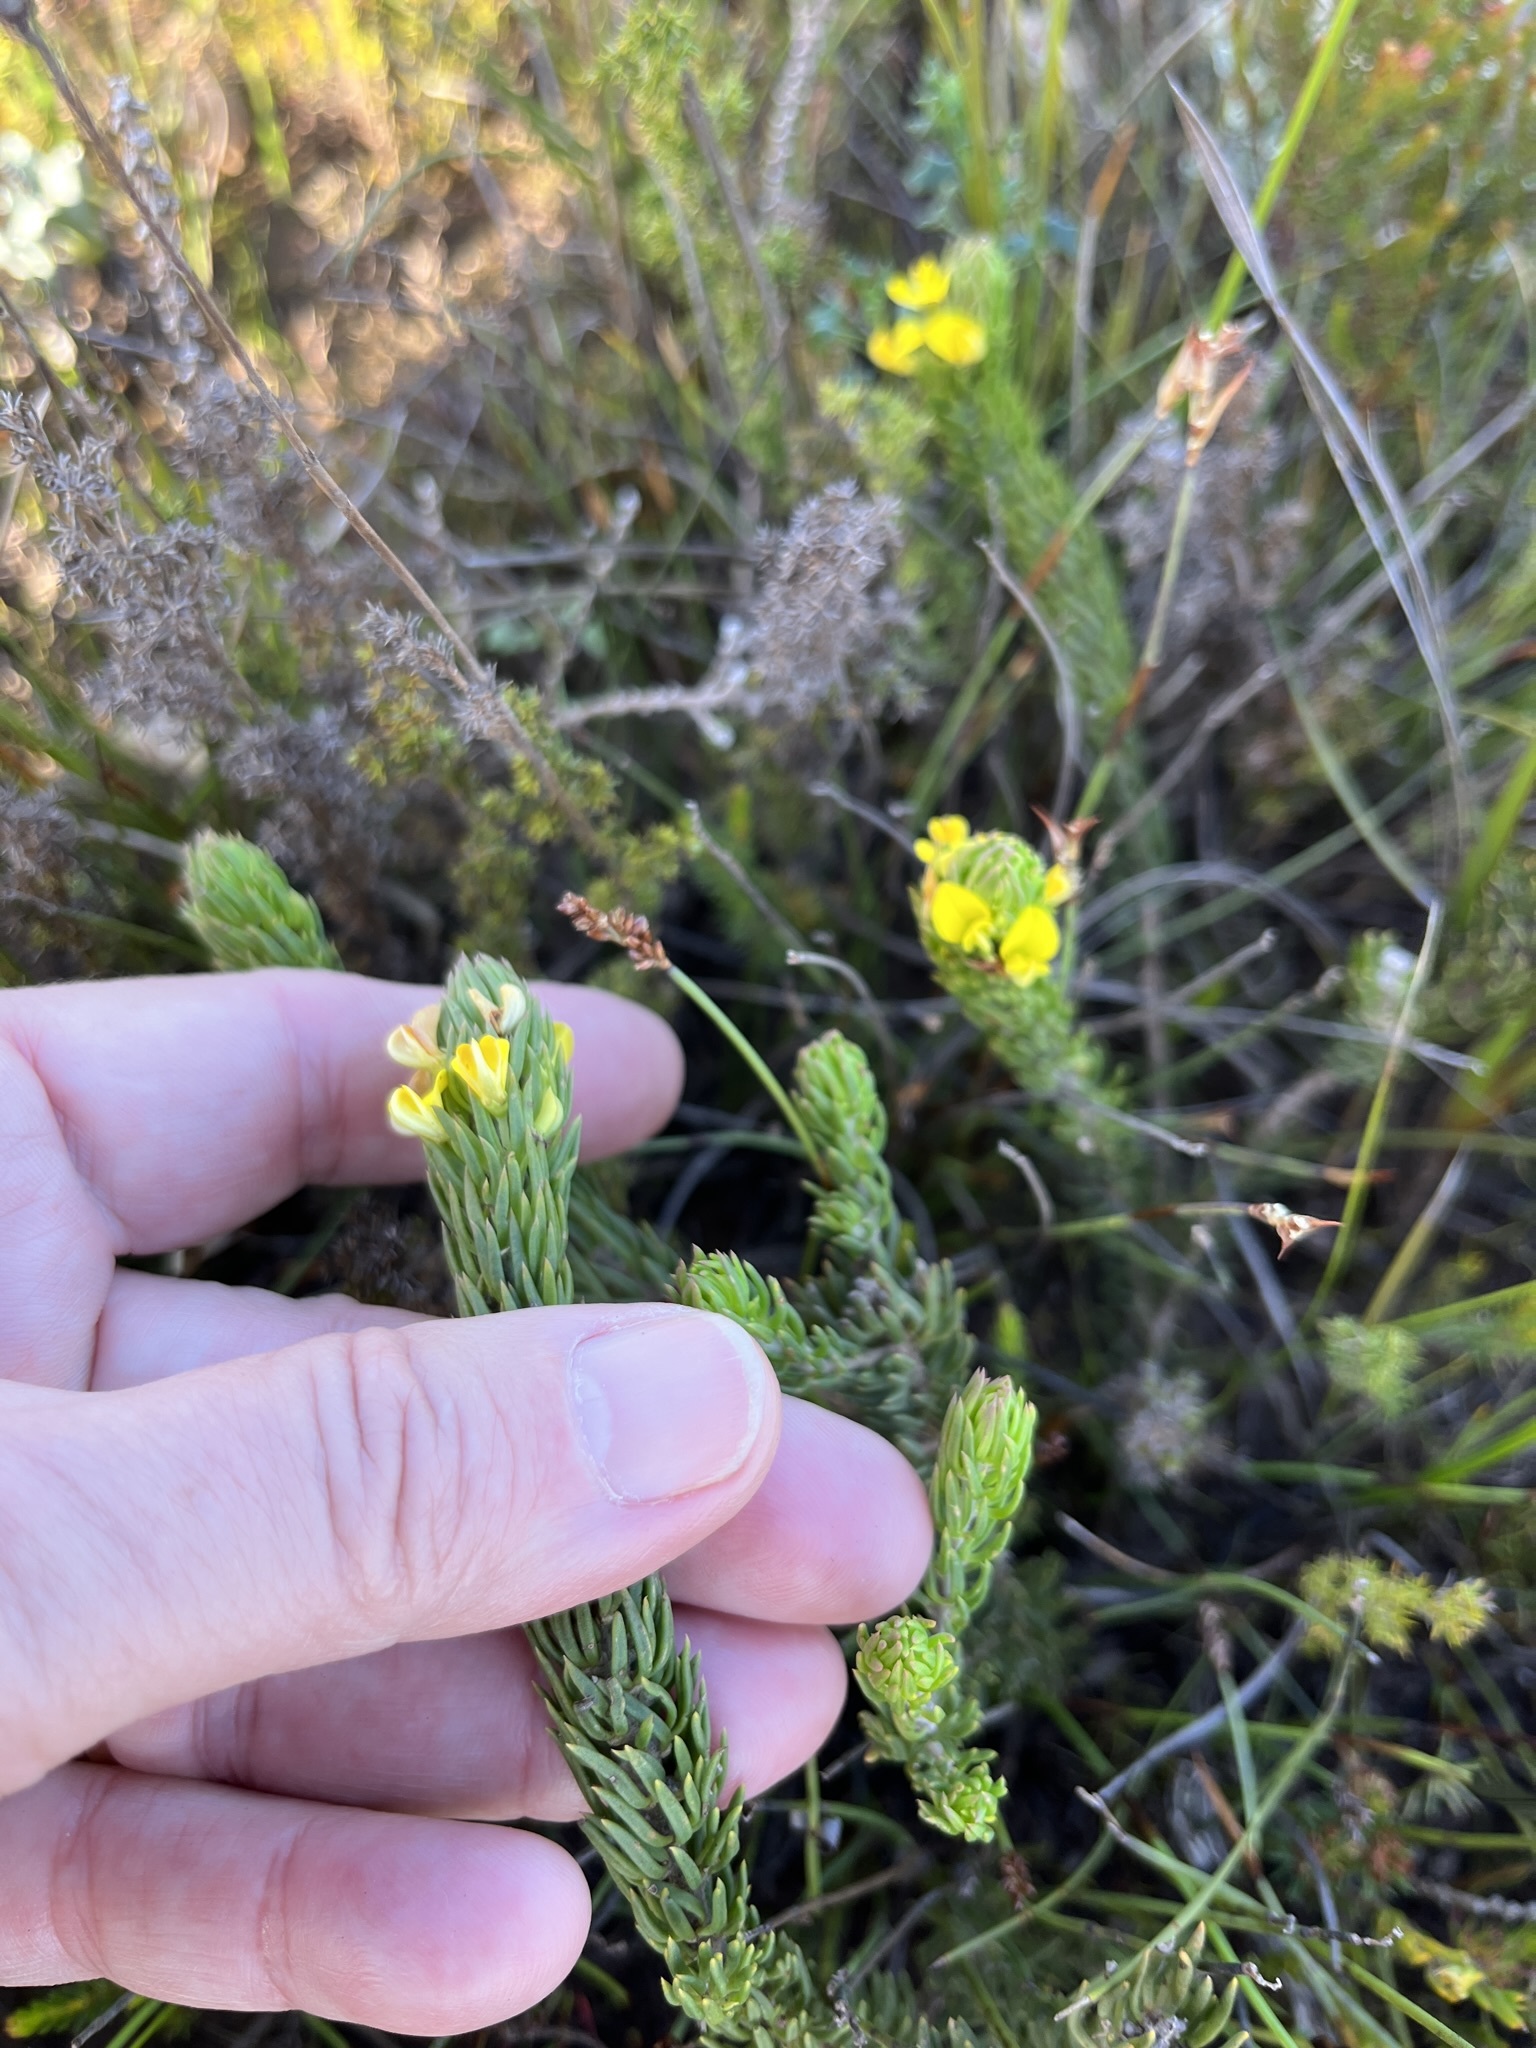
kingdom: Plantae
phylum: Tracheophyta
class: Magnoliopsida
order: Fabales
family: Fabaceae
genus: Aspalathus
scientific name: Aspalathus mundiana
